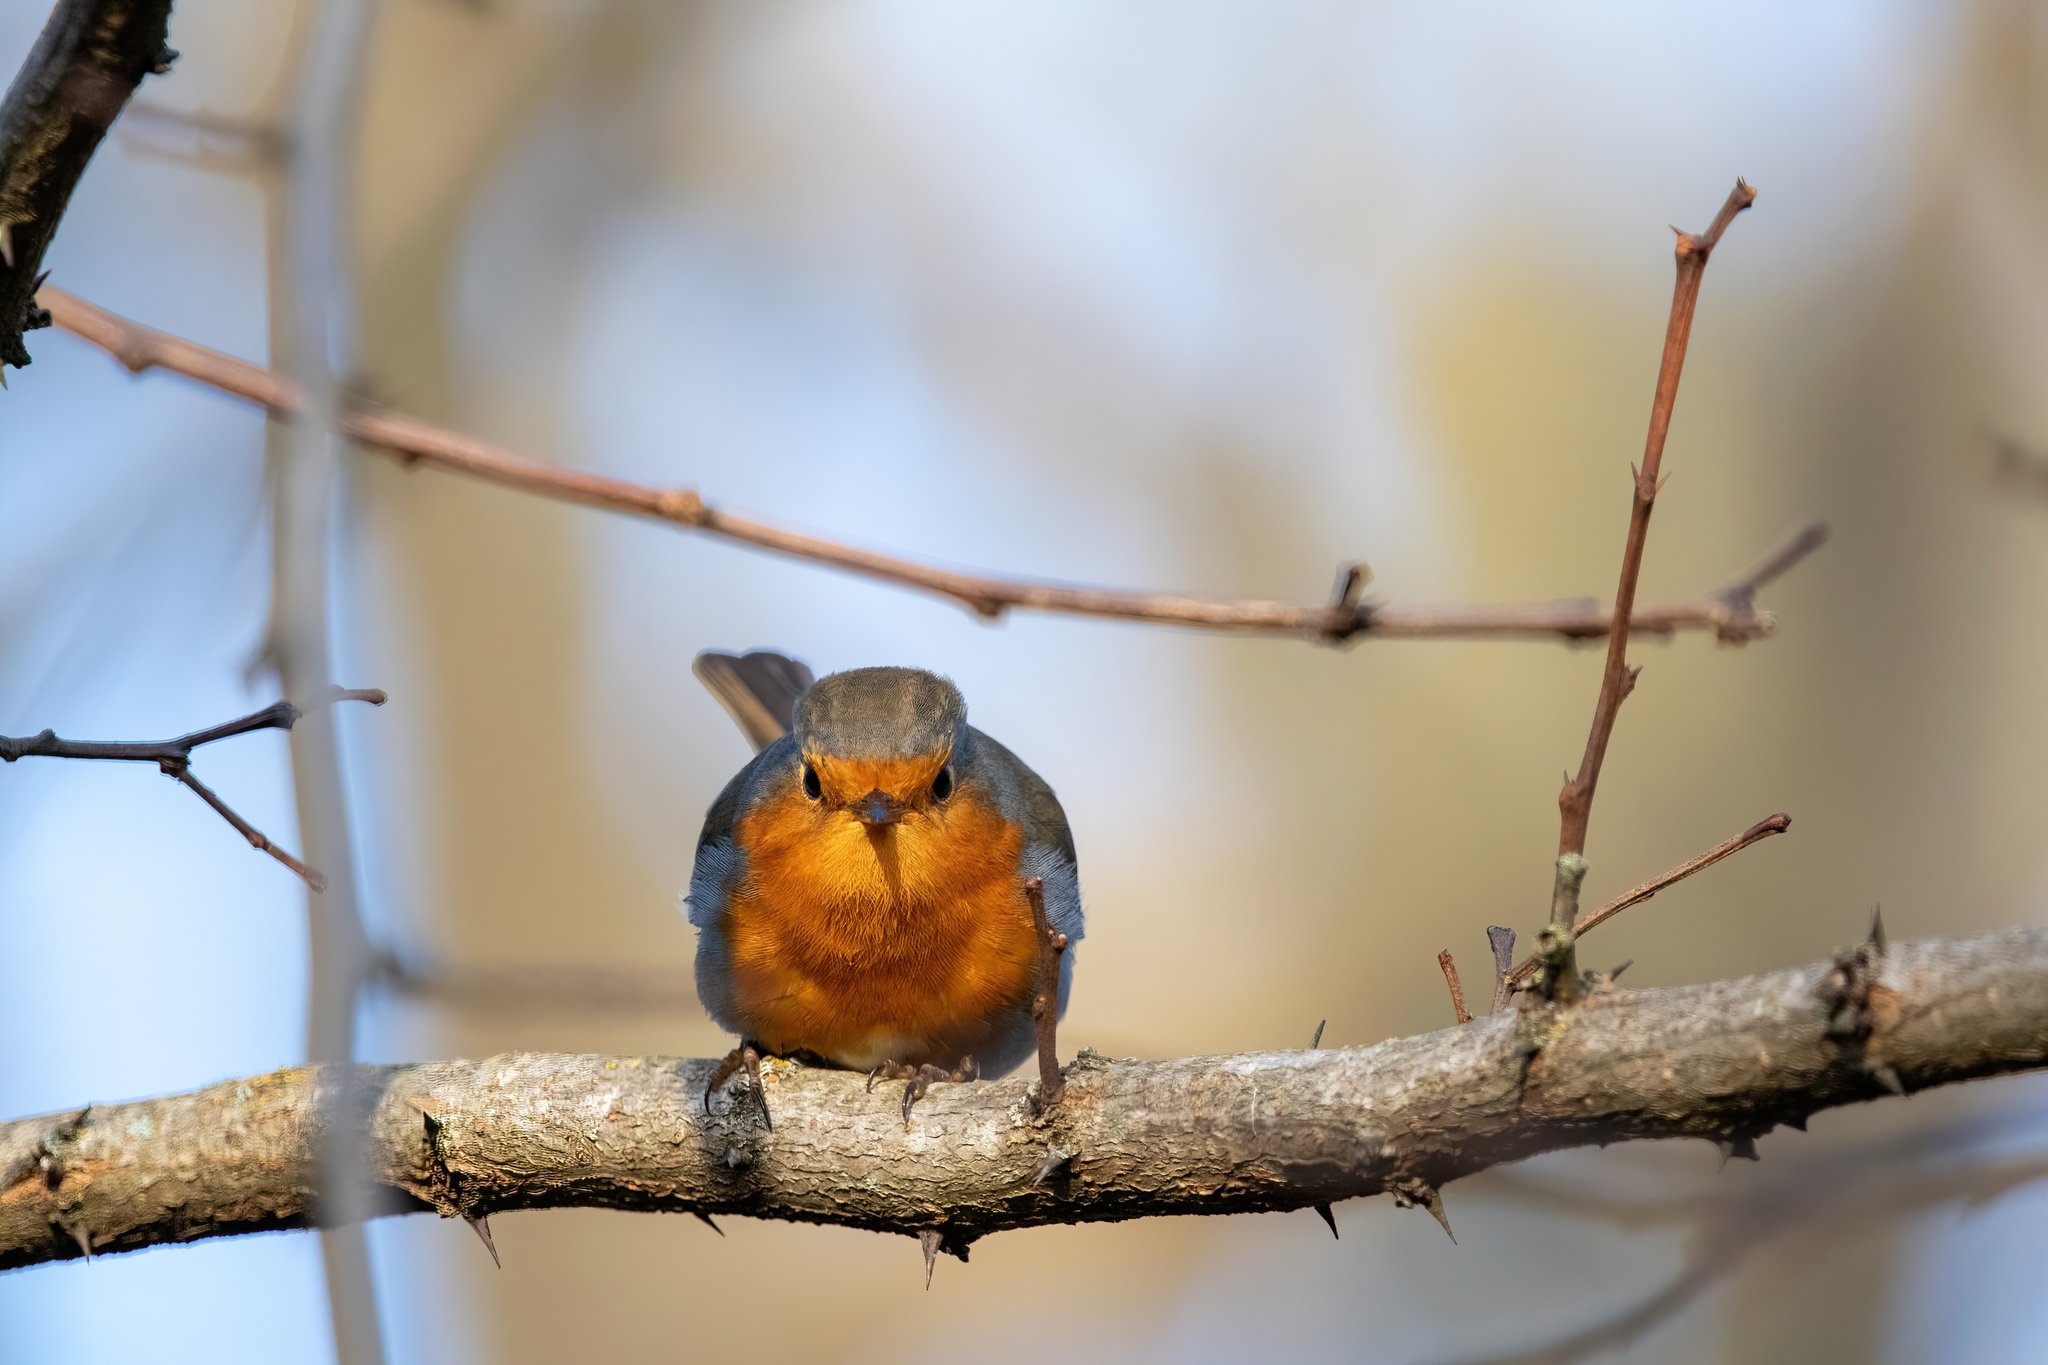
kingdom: Animalia
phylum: Chordata
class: Aves
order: Passeriformes
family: Muscicapidae
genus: Erithacus
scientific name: Erithacus rubecula
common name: European robin
